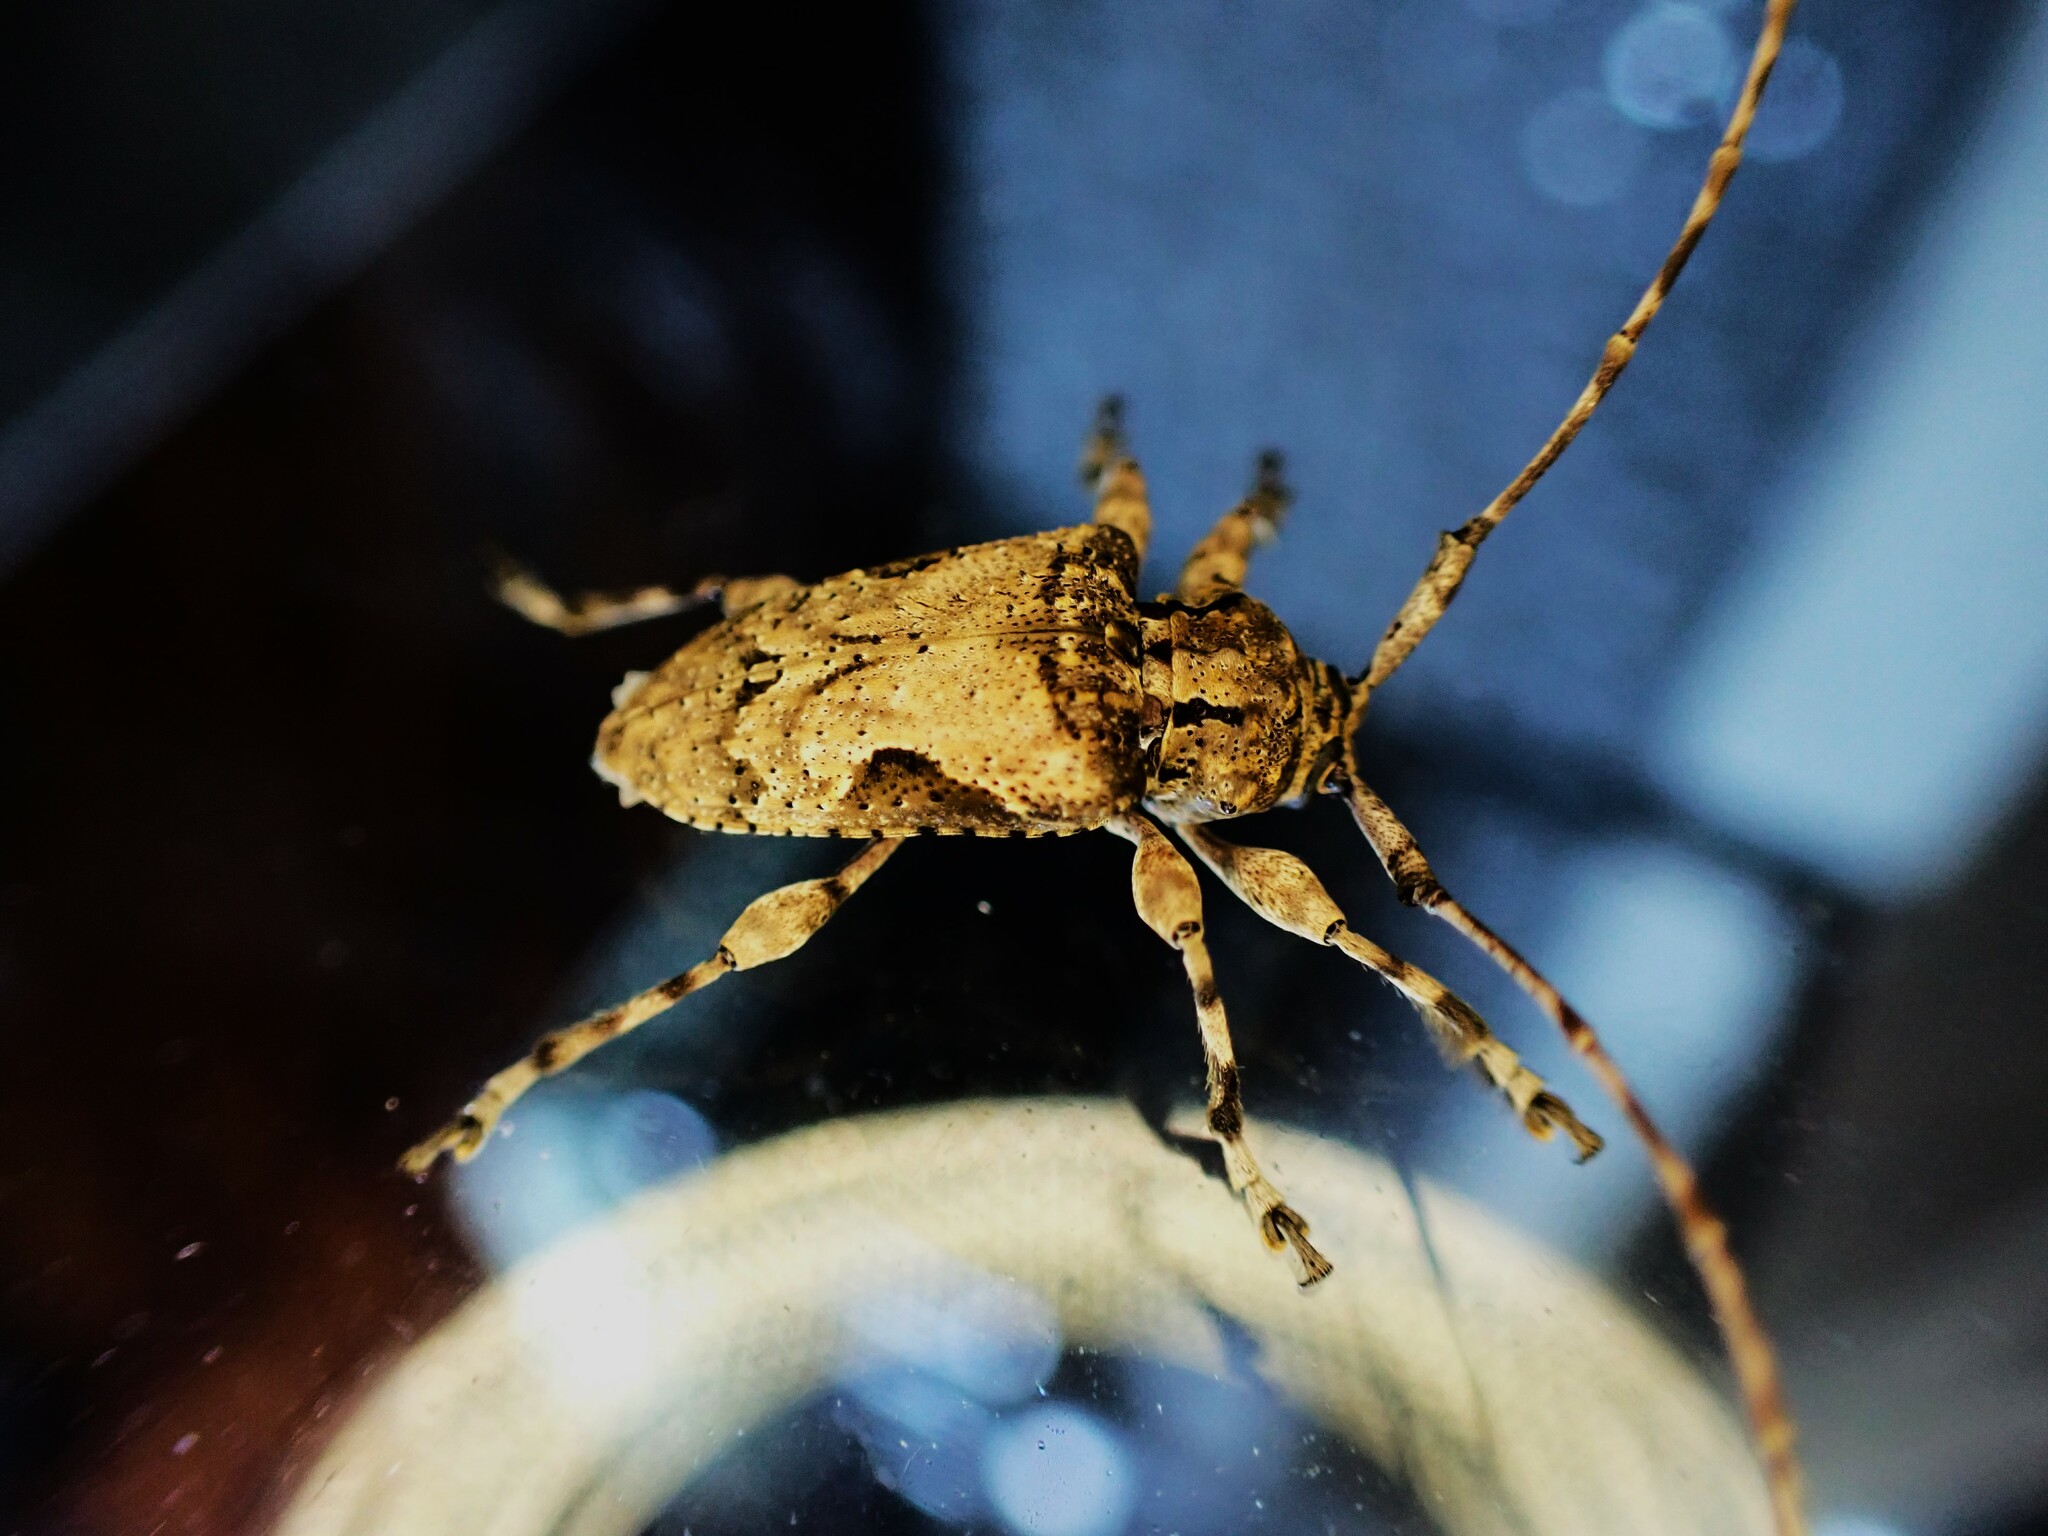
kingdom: Animalia
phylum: Arthropoda
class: Insecta
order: Coleoptera
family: Cerambycidae
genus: Lagocheirus
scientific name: Lagocheirus obsoletus
